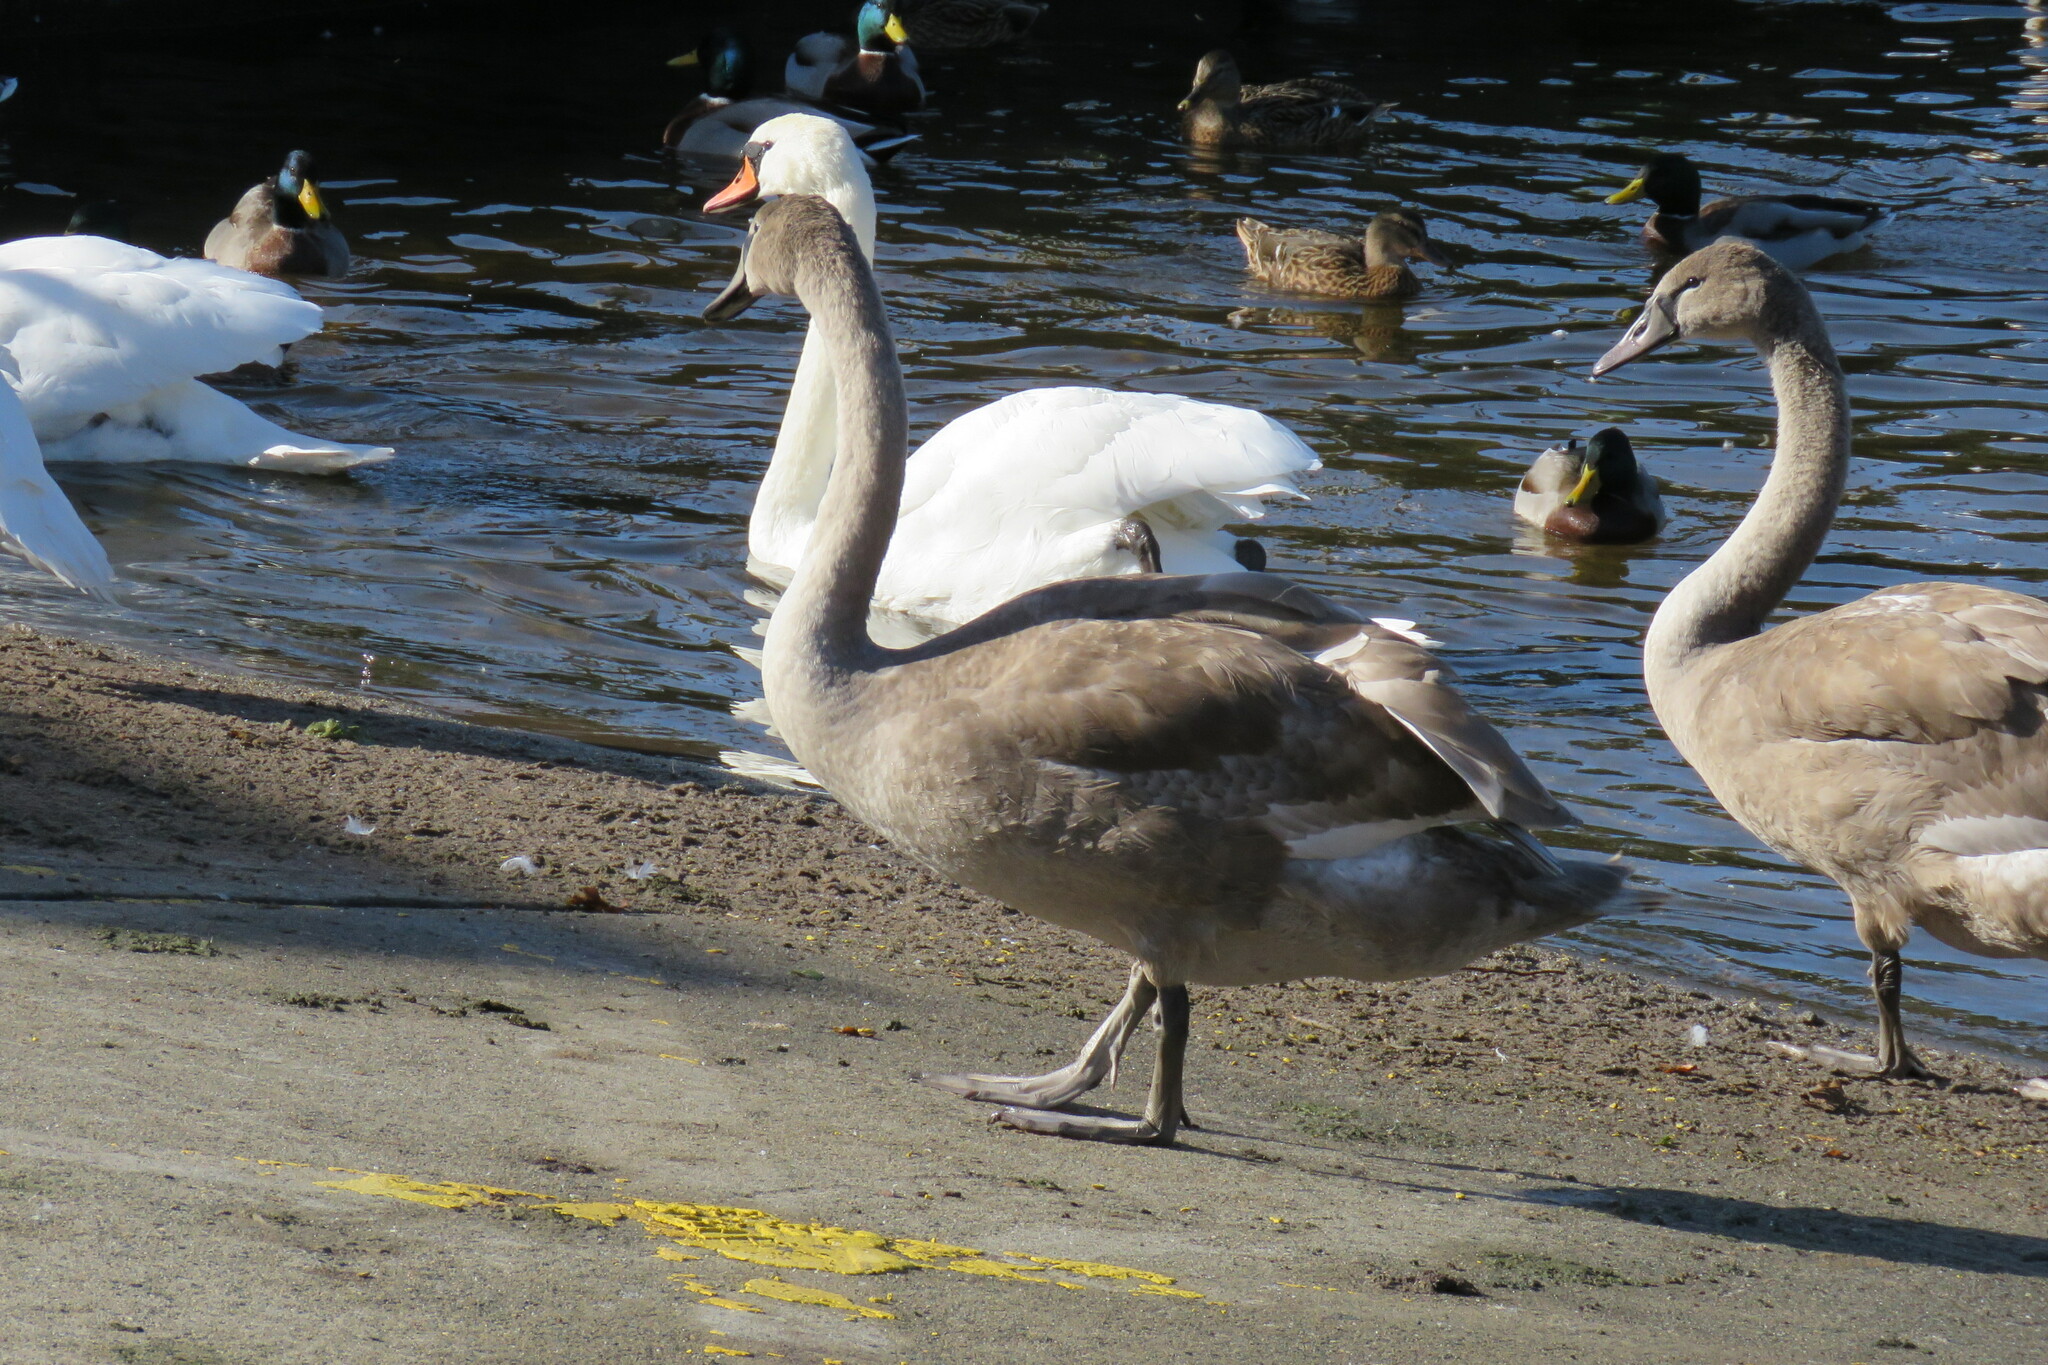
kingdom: Animalia
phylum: Chordata
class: Aves
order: Anseriformes
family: Anatidae
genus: Cygnus
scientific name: Cygnus olor
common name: Mute swan
